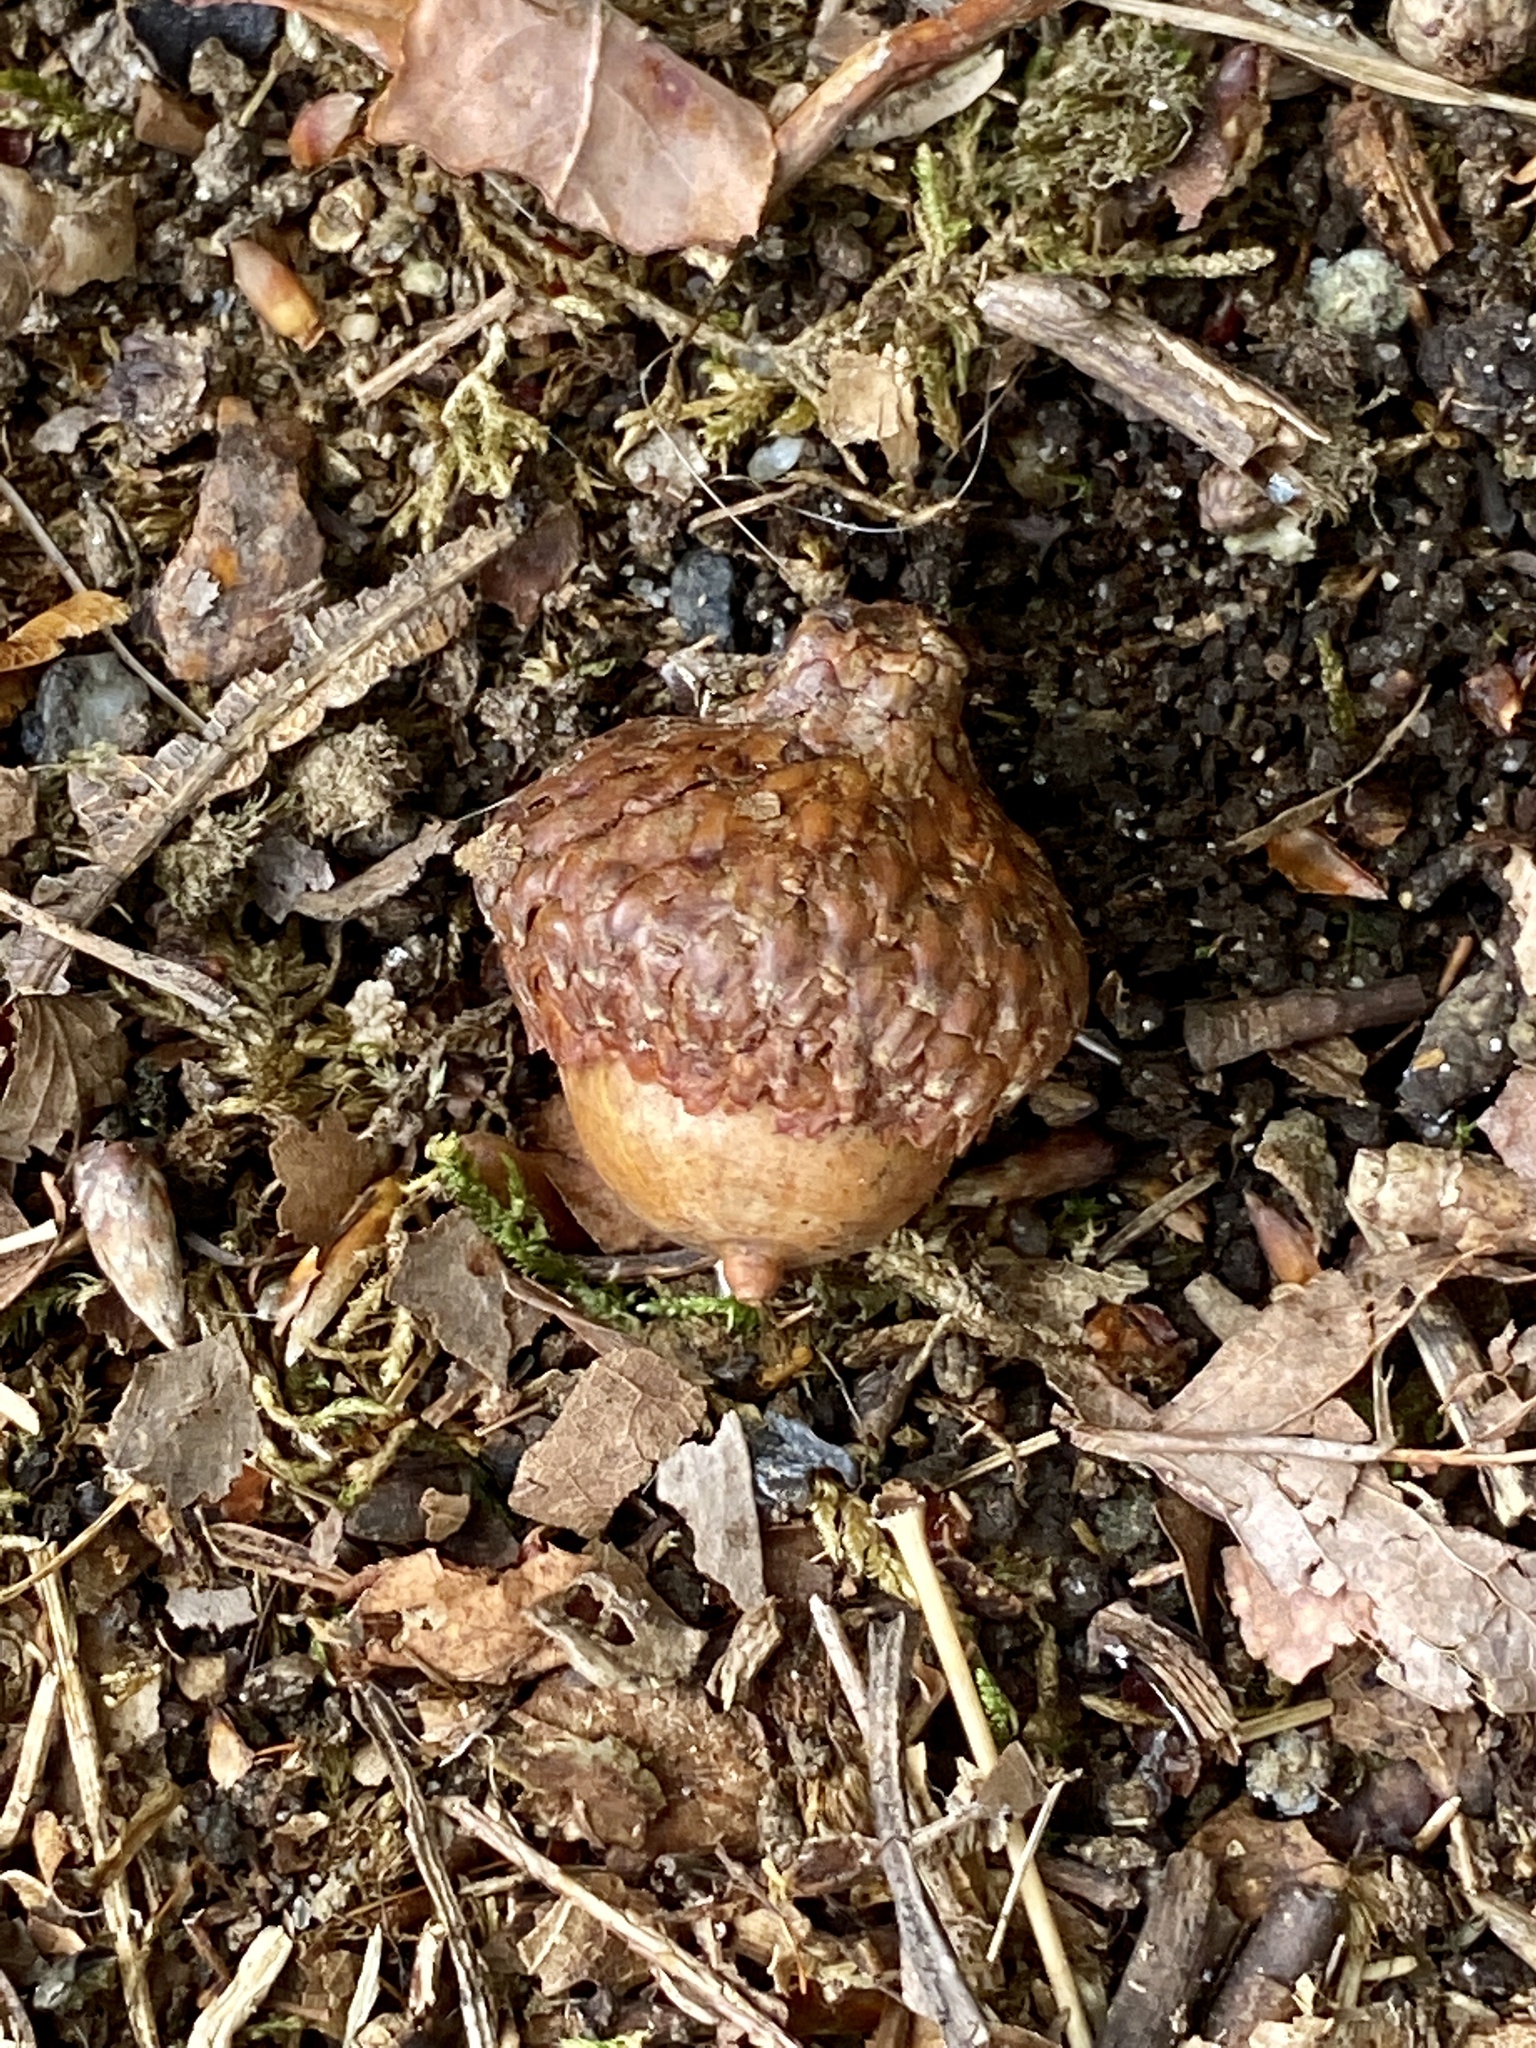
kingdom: Plantae
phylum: Tracheophyta
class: Magnoliopsida
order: Fagales
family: Fagaceae
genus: Quercus
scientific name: Quercus velutina
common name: Black oak
